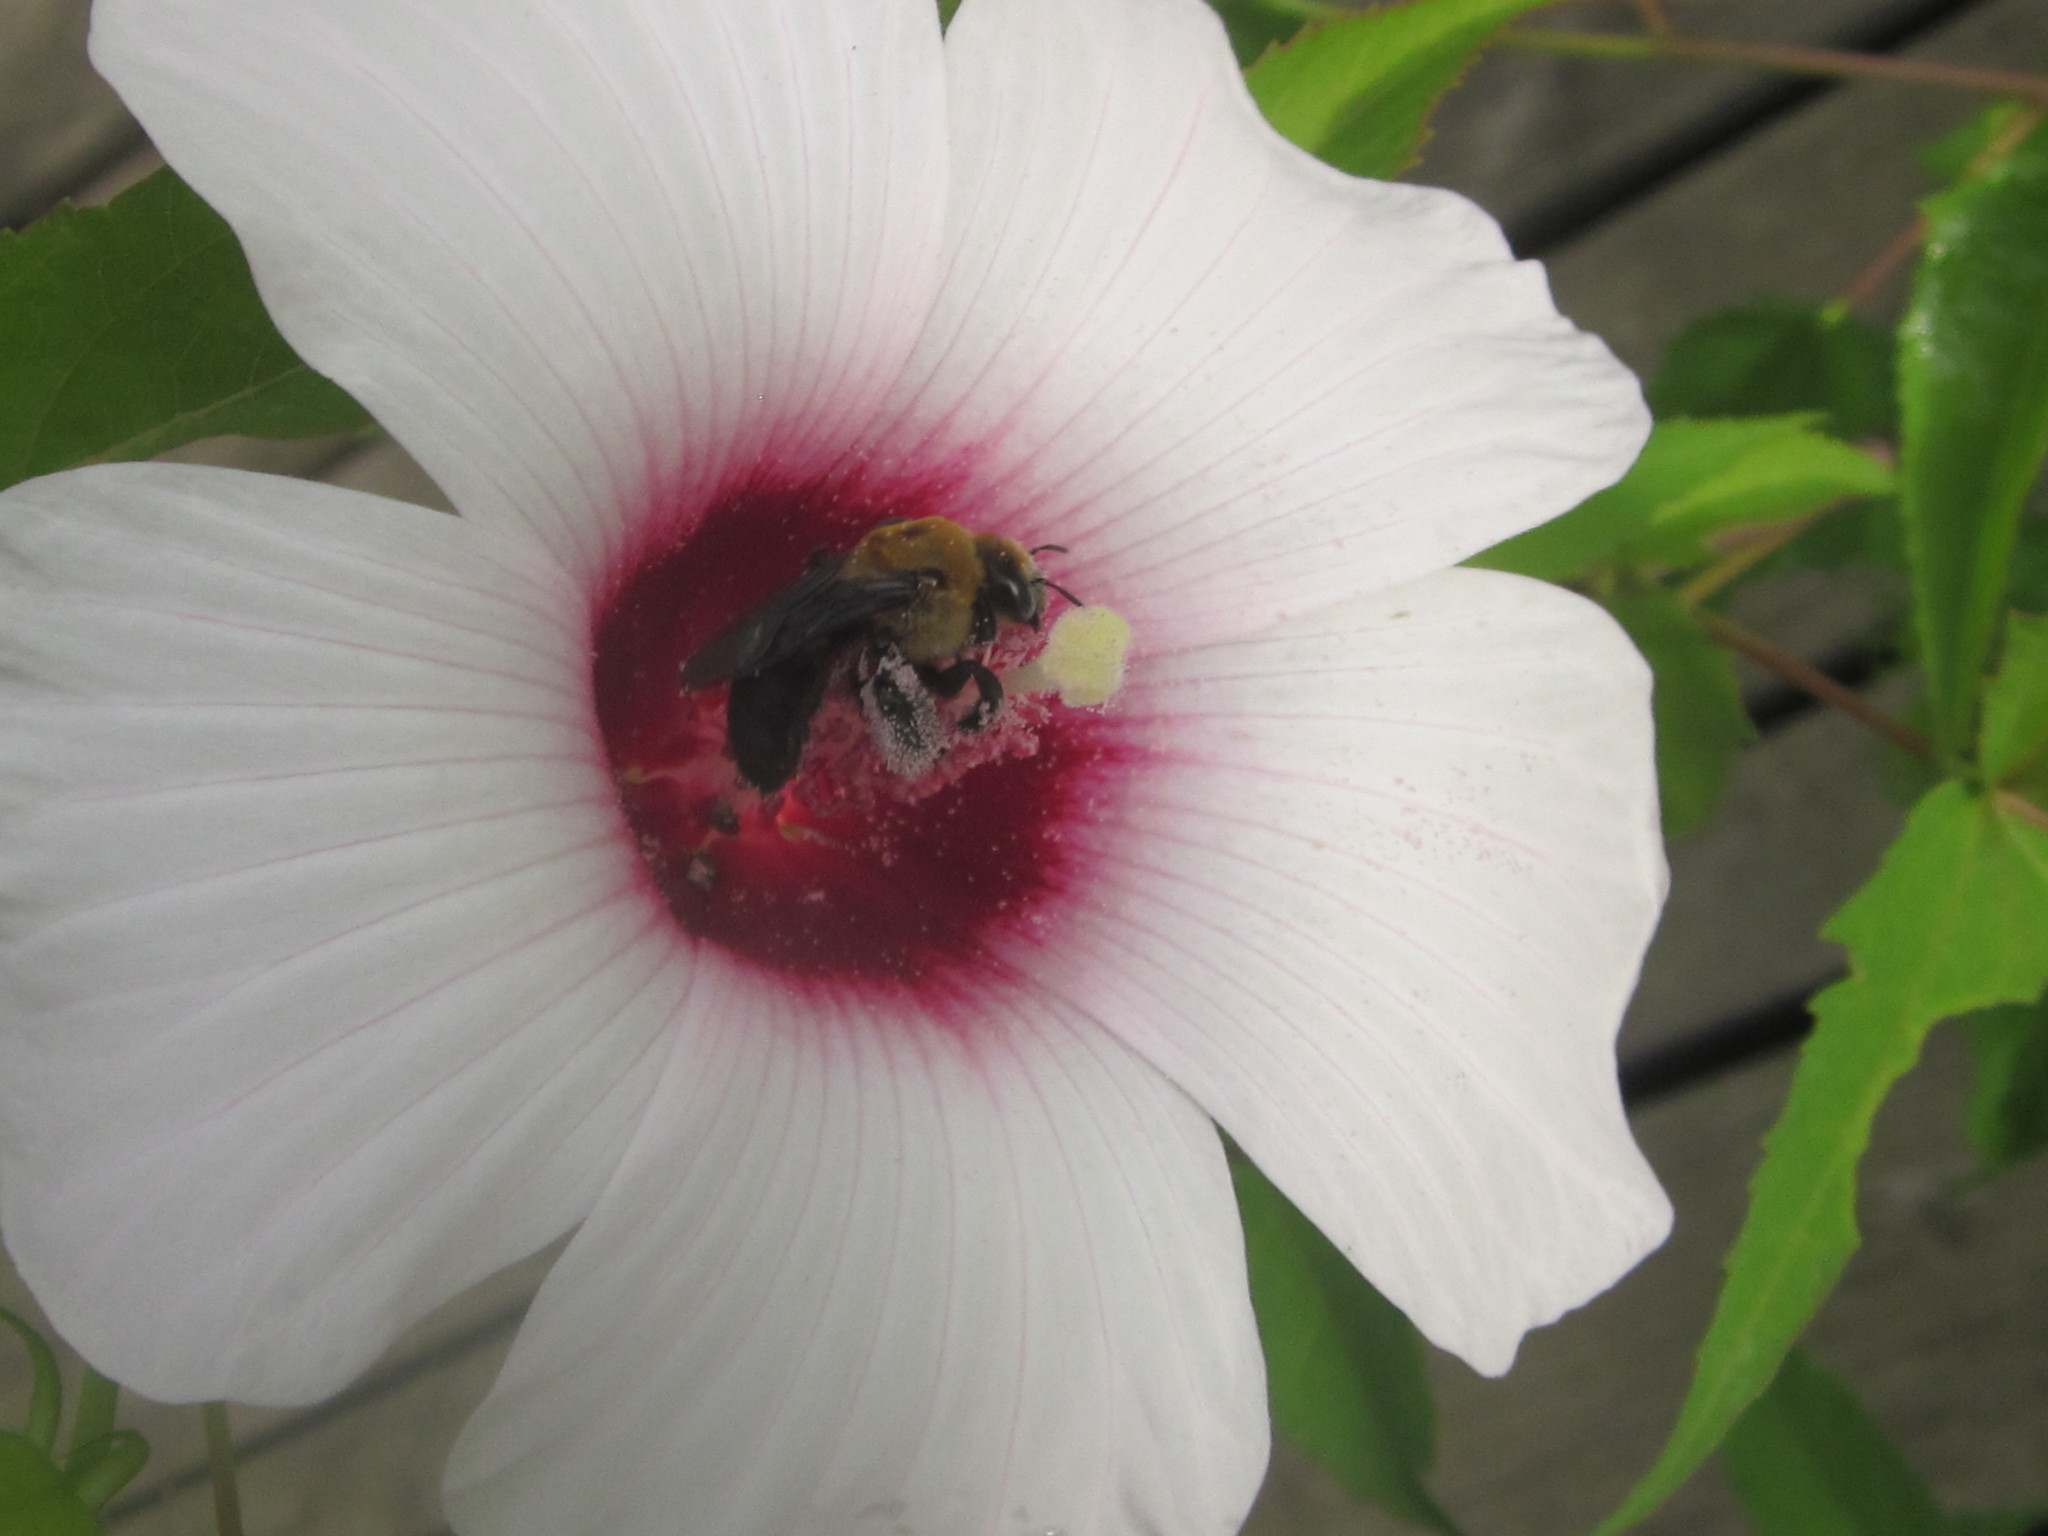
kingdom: Animalia
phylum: Arthropoda
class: Insecta
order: Hymenoptera
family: Apidae
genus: Ptilothrix
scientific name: Ptilothrix bombiformis
